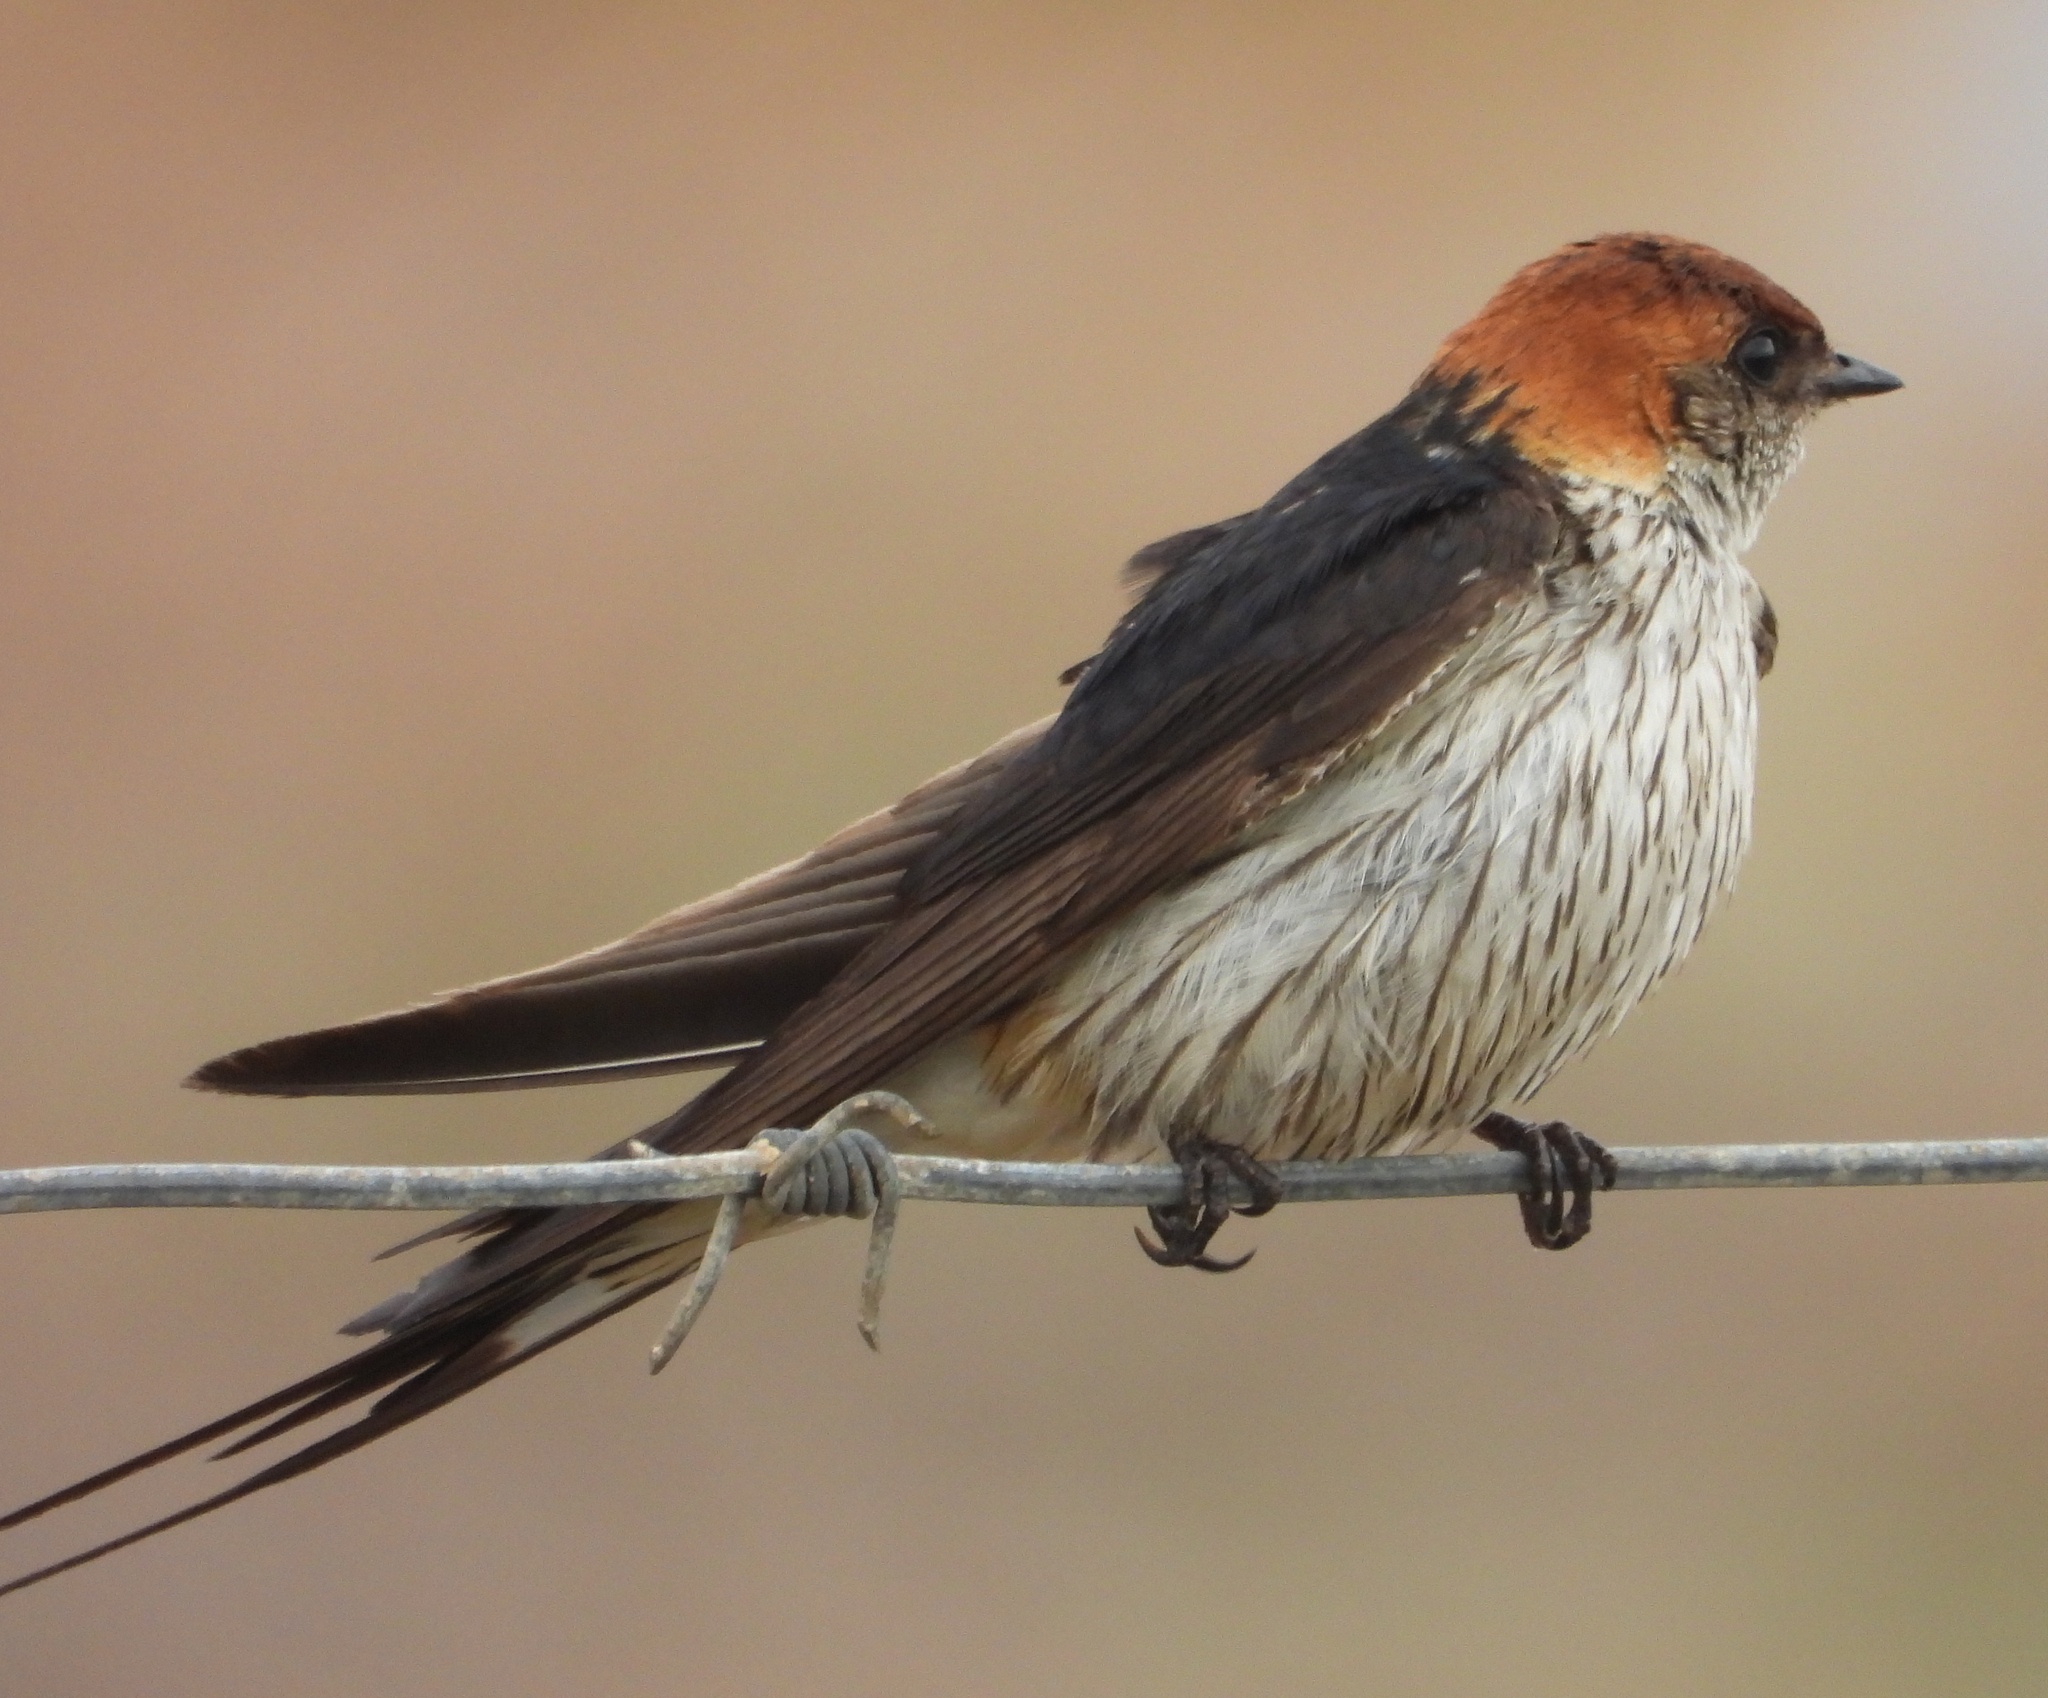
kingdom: Animalia
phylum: Chordata
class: Aves
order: Passeriformes
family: Hirundinidae
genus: Cecropis
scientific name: Cecropis cucullata
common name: Greater striped-swallow
